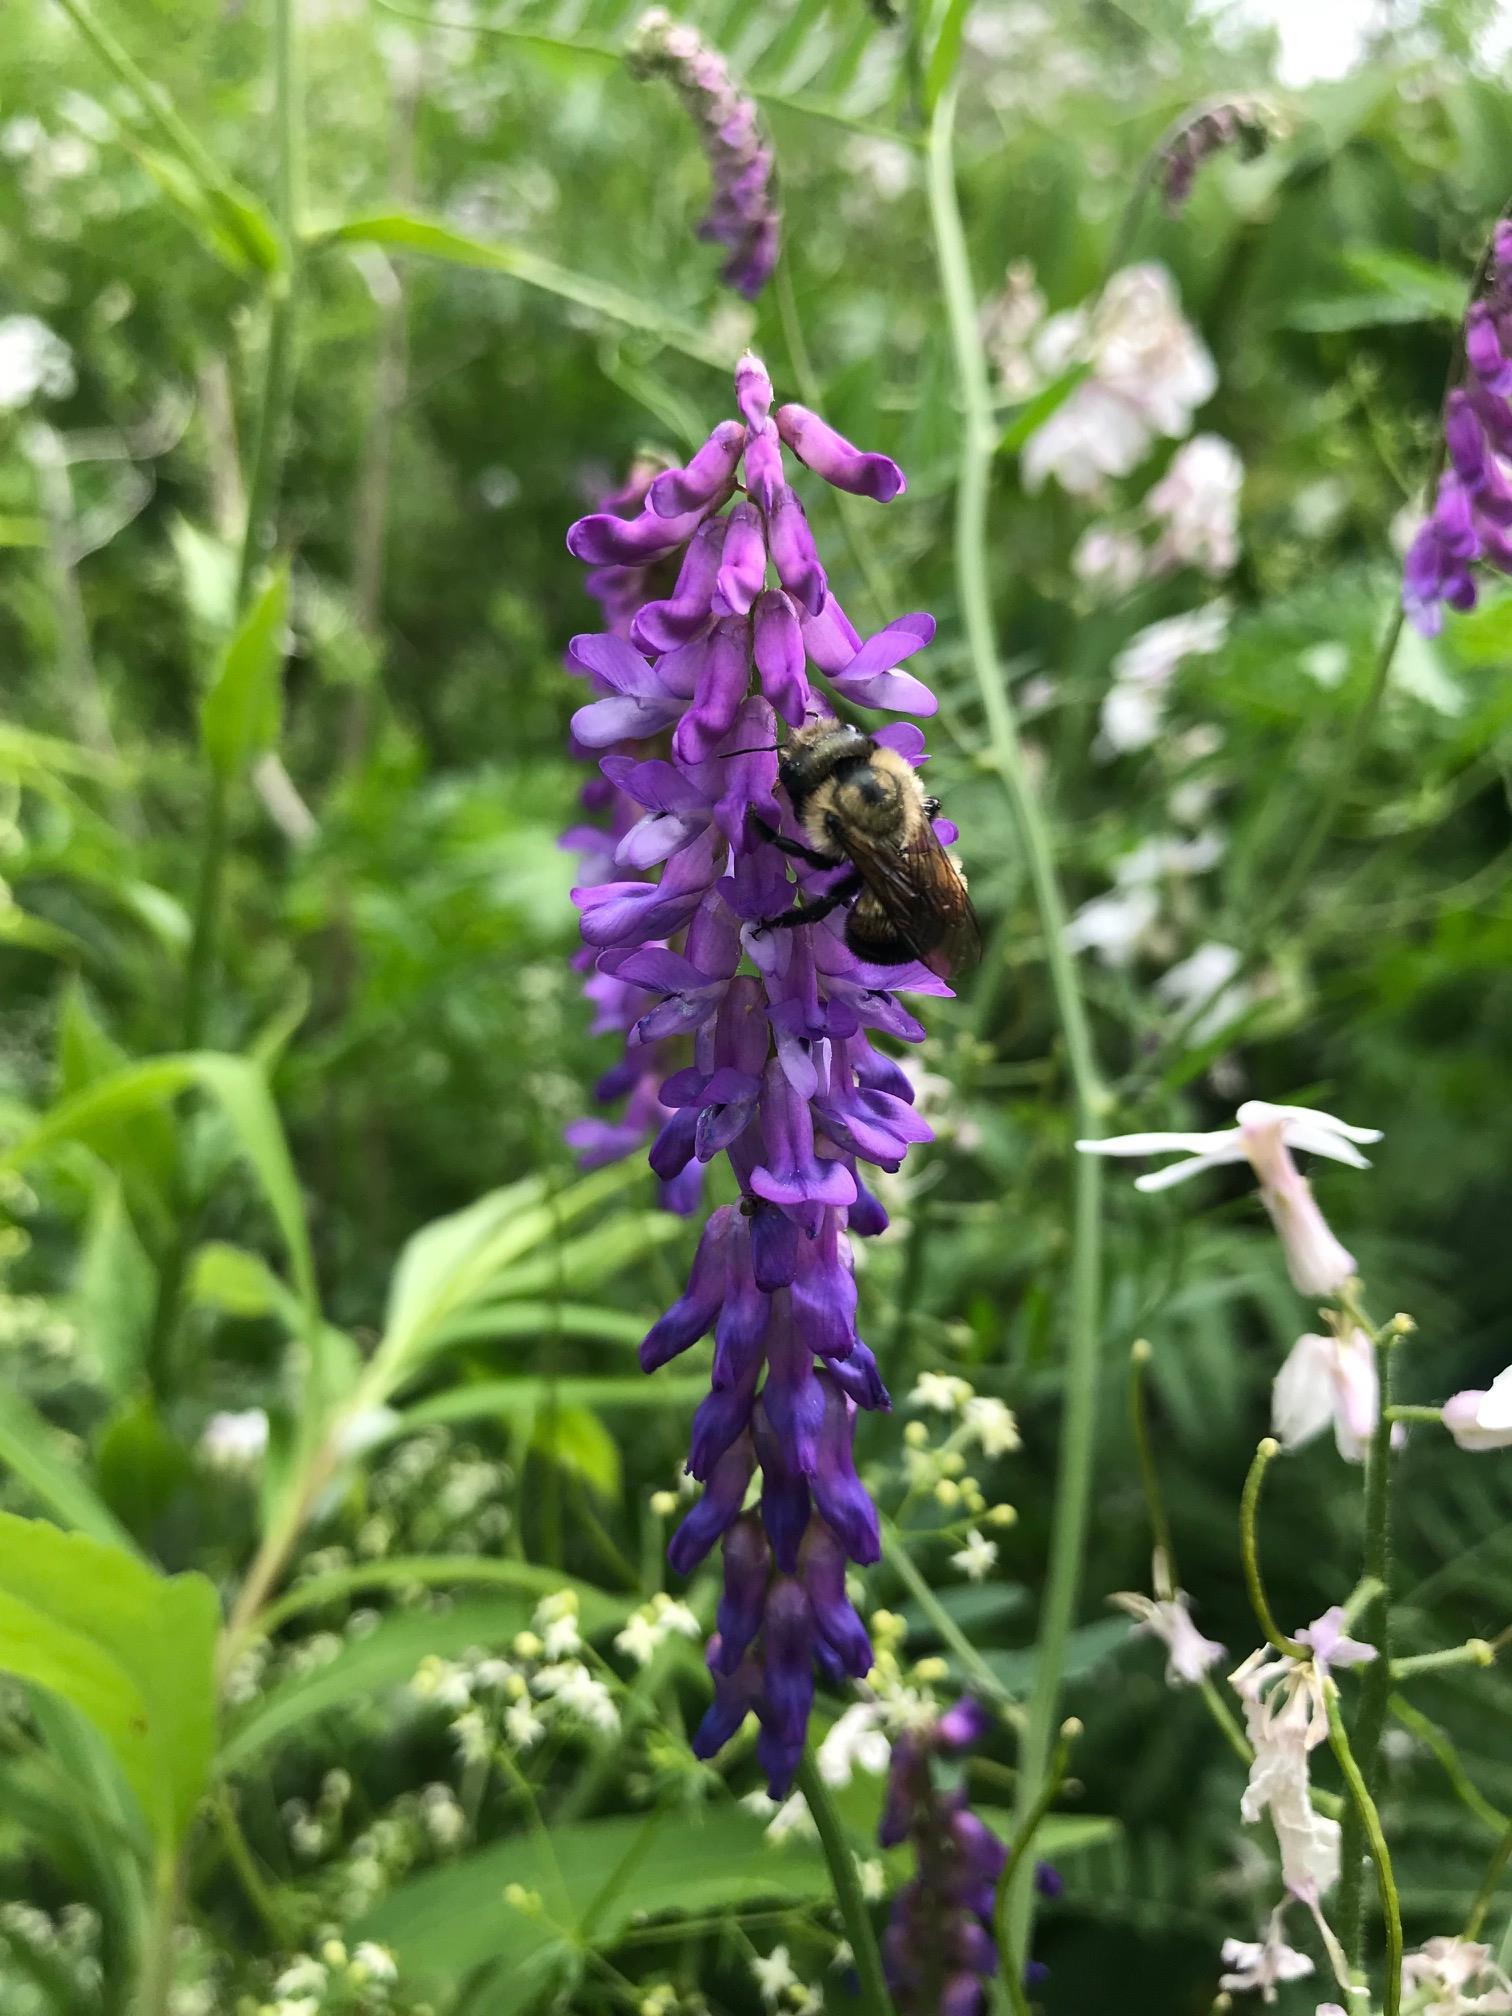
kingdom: Animalia
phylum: Arthropoda
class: Insecta
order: Hymenoptera
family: Megachilidae
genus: Osmia
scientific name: Osmia bucephala
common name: Bufflehead mason bee
